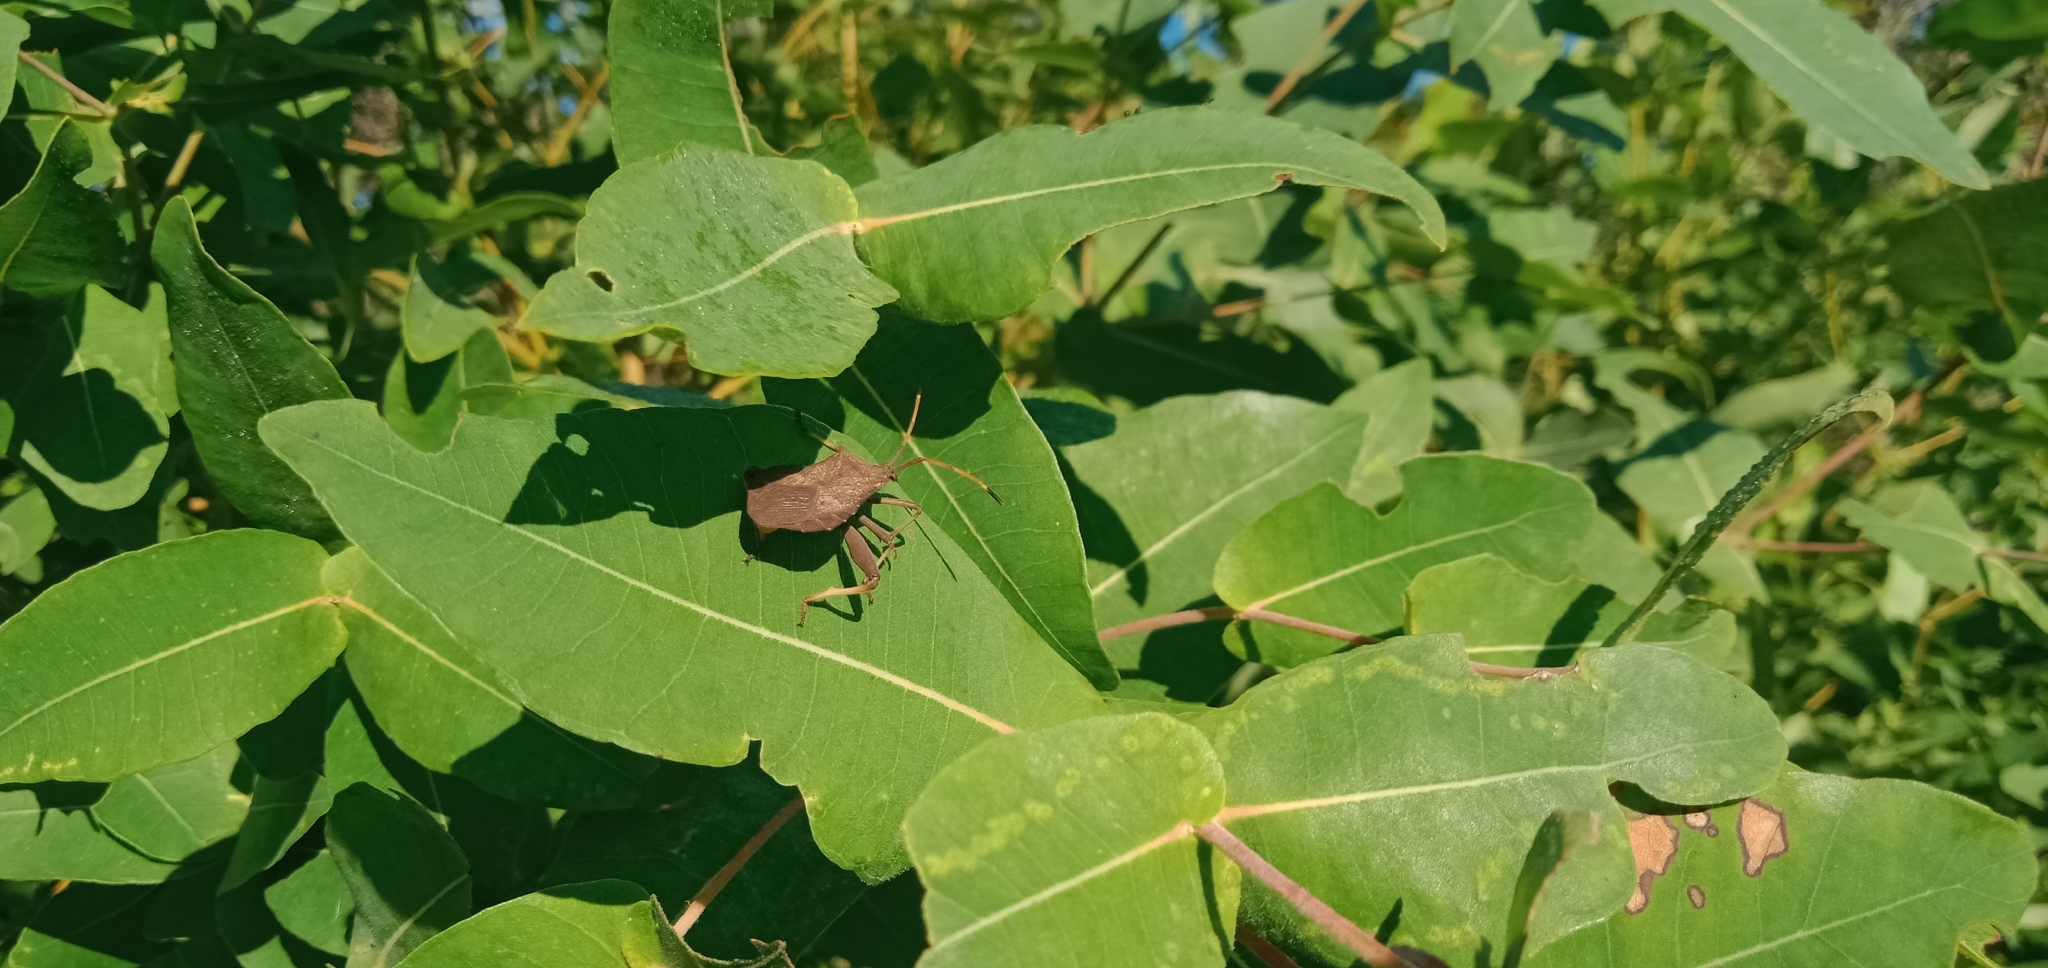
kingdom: Animalia
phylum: Arthropoda
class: Insecta
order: Hemiptera
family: Coreidae
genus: Amorbus
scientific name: Amorbus rhombifer
